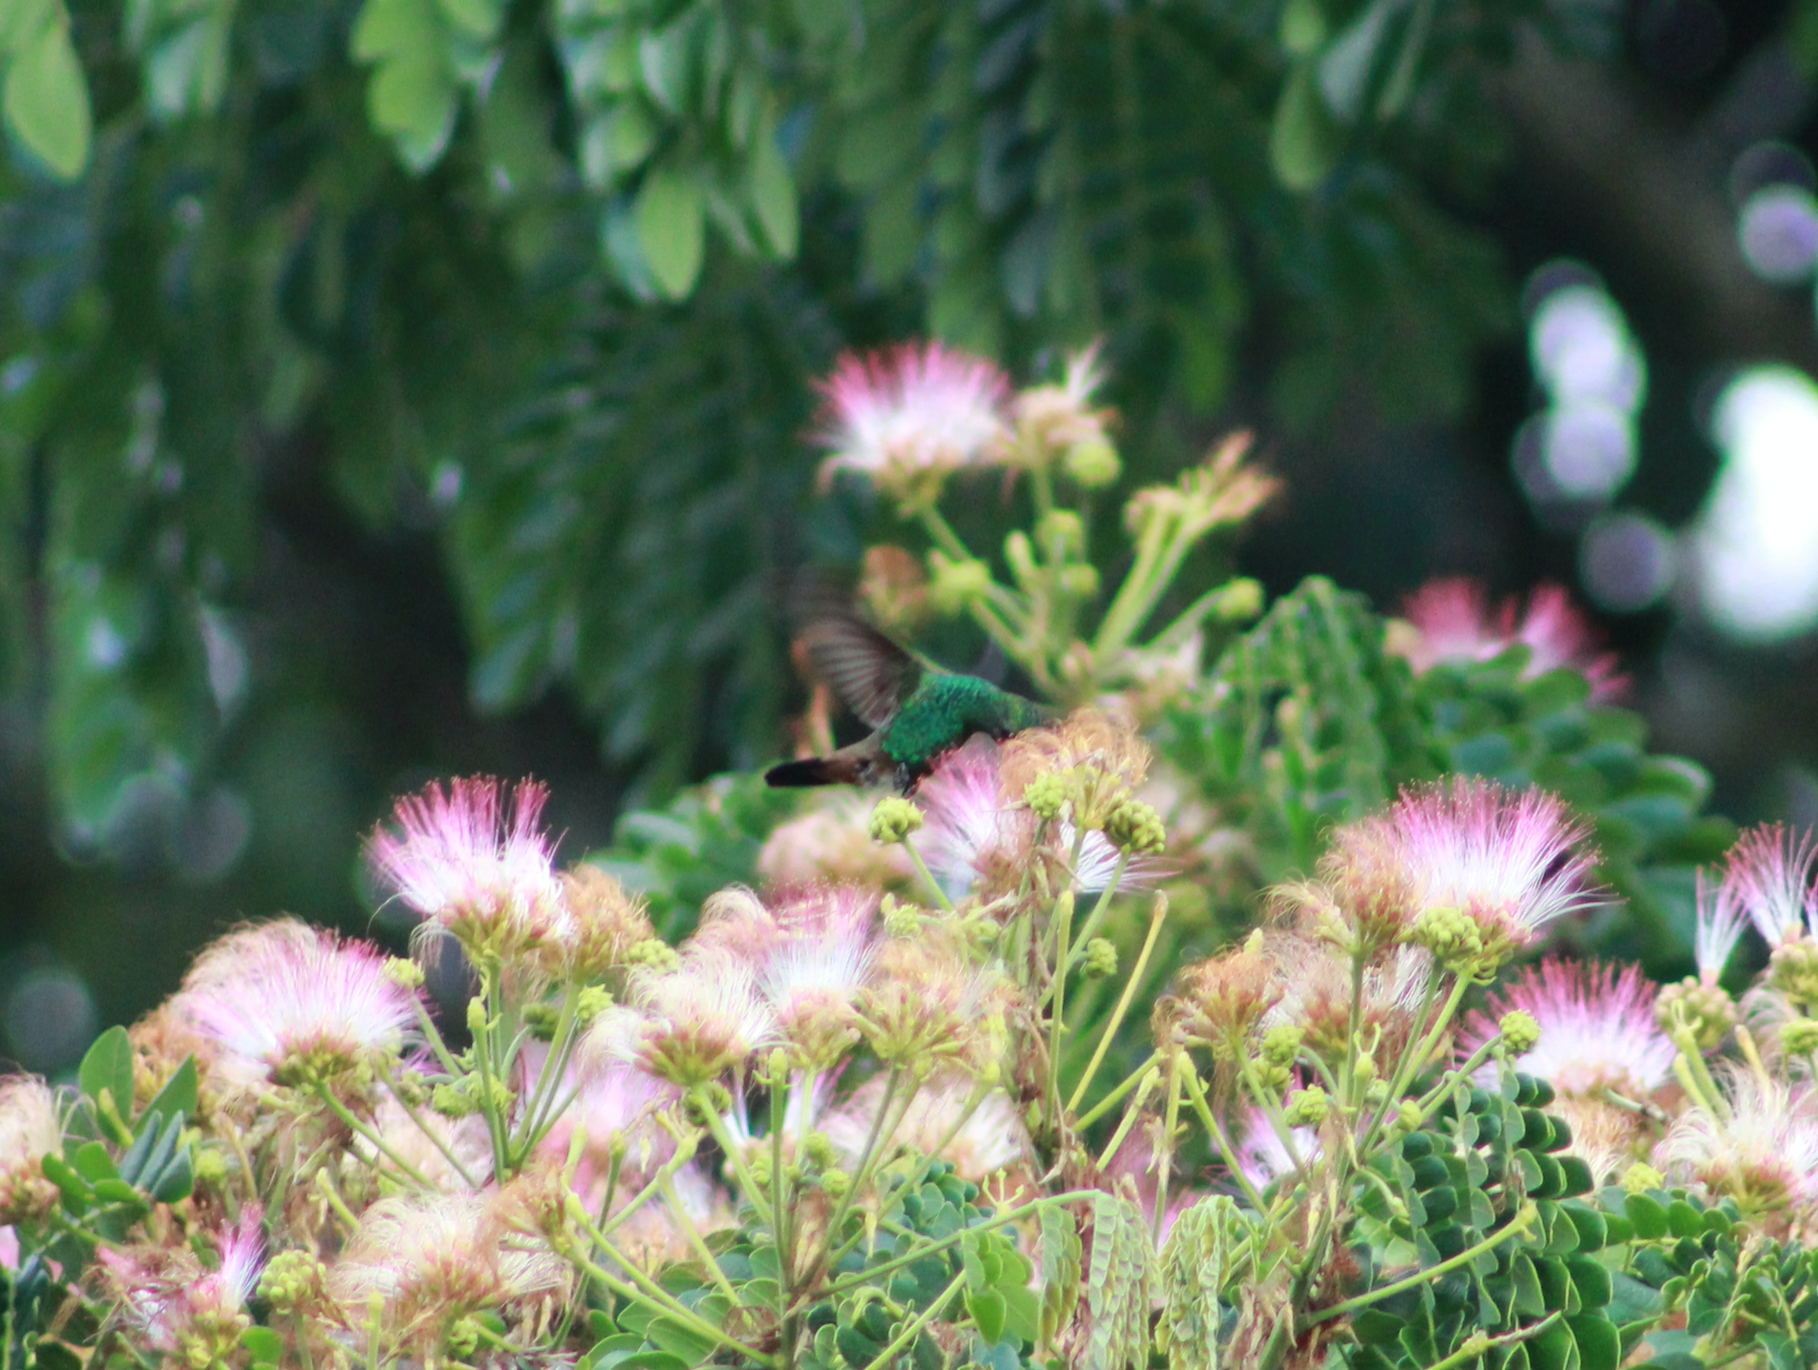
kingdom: Animalia
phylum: Chordata
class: Aves
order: Apodiformes
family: Trochilidae
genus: Saucerottia
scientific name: Saucerottia tobaci
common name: Copper-rumped hummingbird
